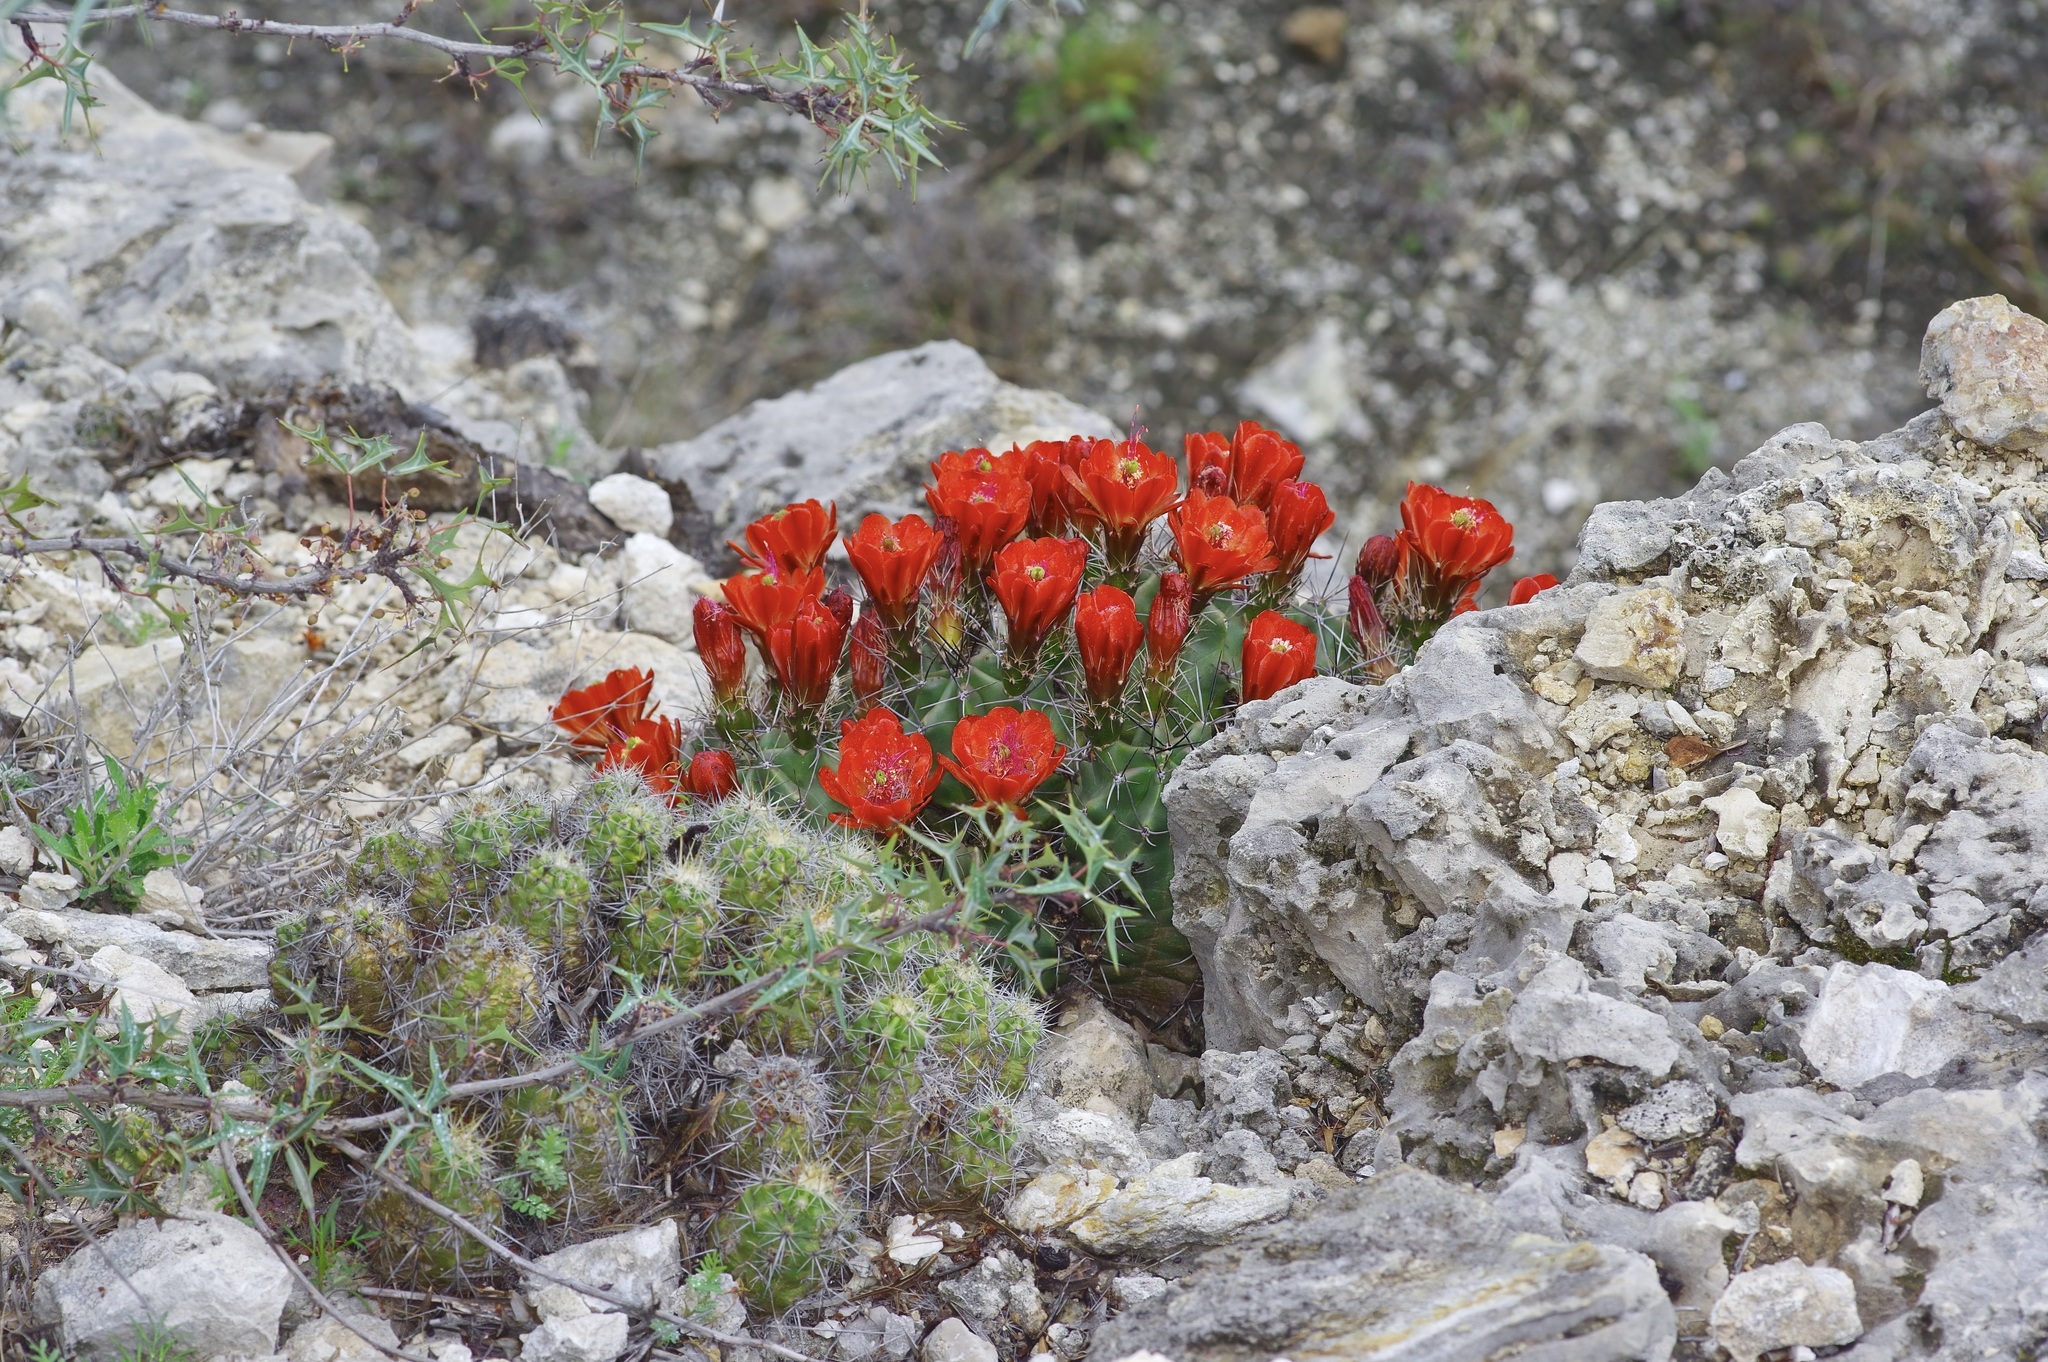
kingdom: Plantae
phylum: Tracheophyta
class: Magnoliopsida
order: Caryophyllales
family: Cactaceae
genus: Echinocereus
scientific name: Echinocereus coccineus
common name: Scarlet hedgehog cactus
